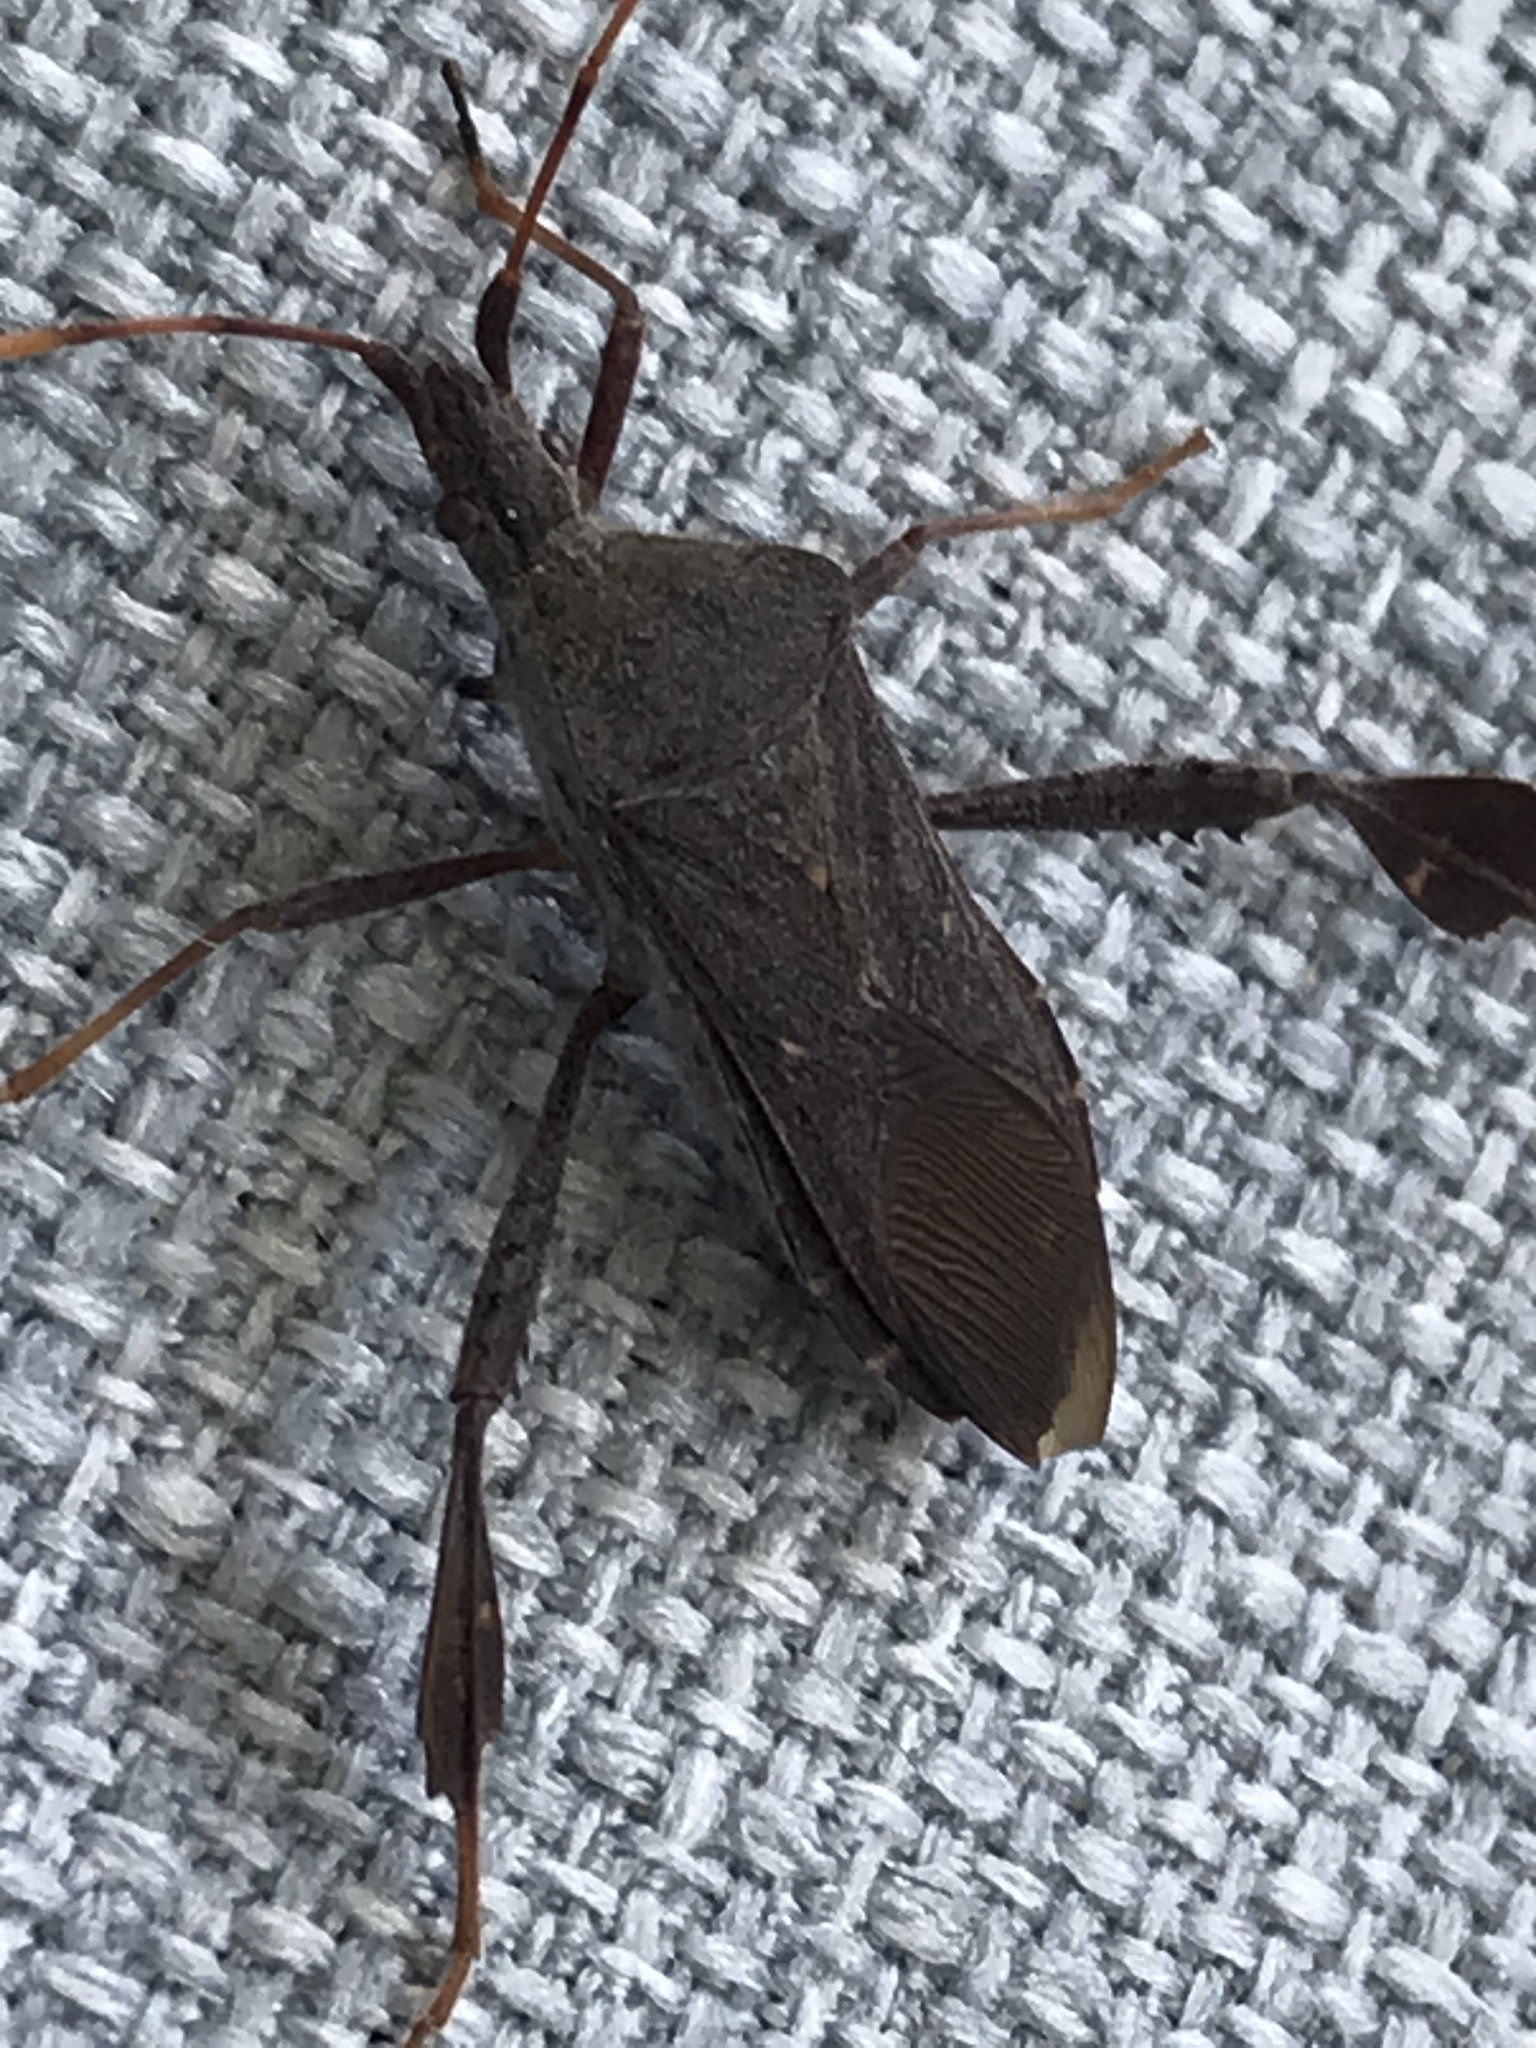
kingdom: Animalia
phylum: Arthropoda
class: Insecta
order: Hemiptera
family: Coreidae
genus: Leptoglossus
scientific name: Leptoglossus oppositus
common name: Northern leaf-footed bug
